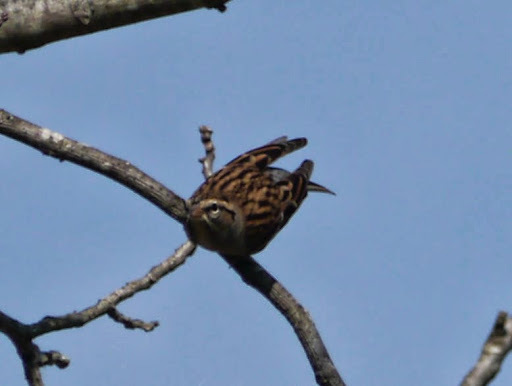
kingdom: Animalia
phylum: Chordata
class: Aves
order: Passeriformes
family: Passerellidae
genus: Spizella
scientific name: Spizella passerina
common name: Chipping sparrow
